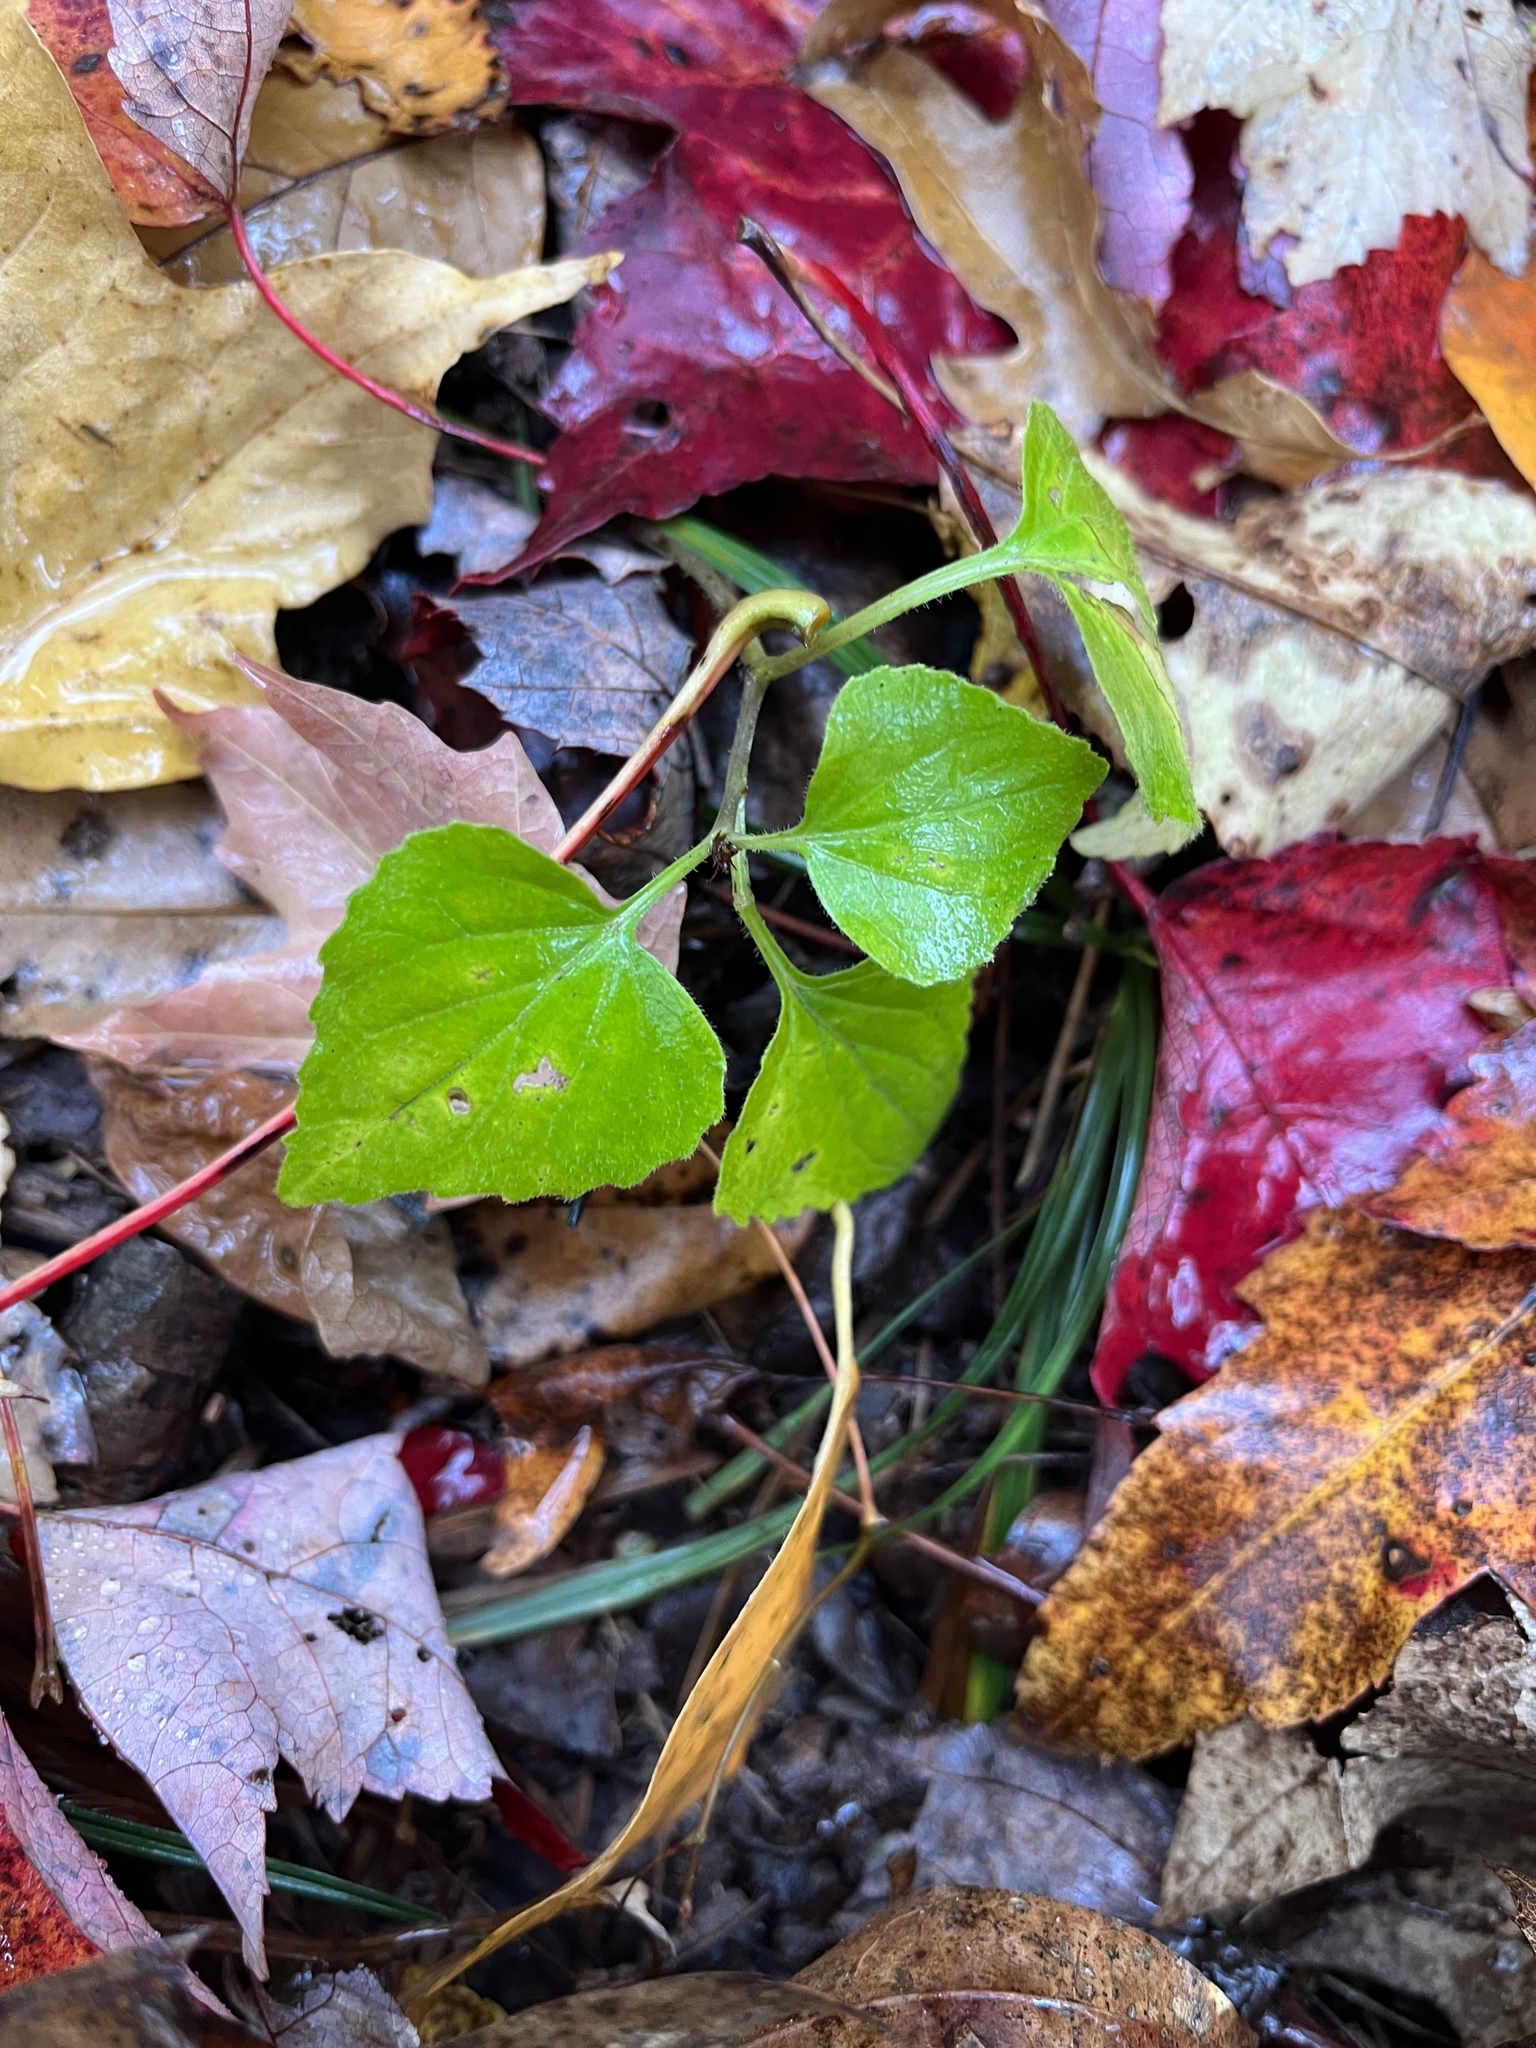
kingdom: Plantae
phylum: Tracheophyta
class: Magnoliopsida
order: Malpighiales
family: Violaceae
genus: Viola
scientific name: Viola glaberrima
